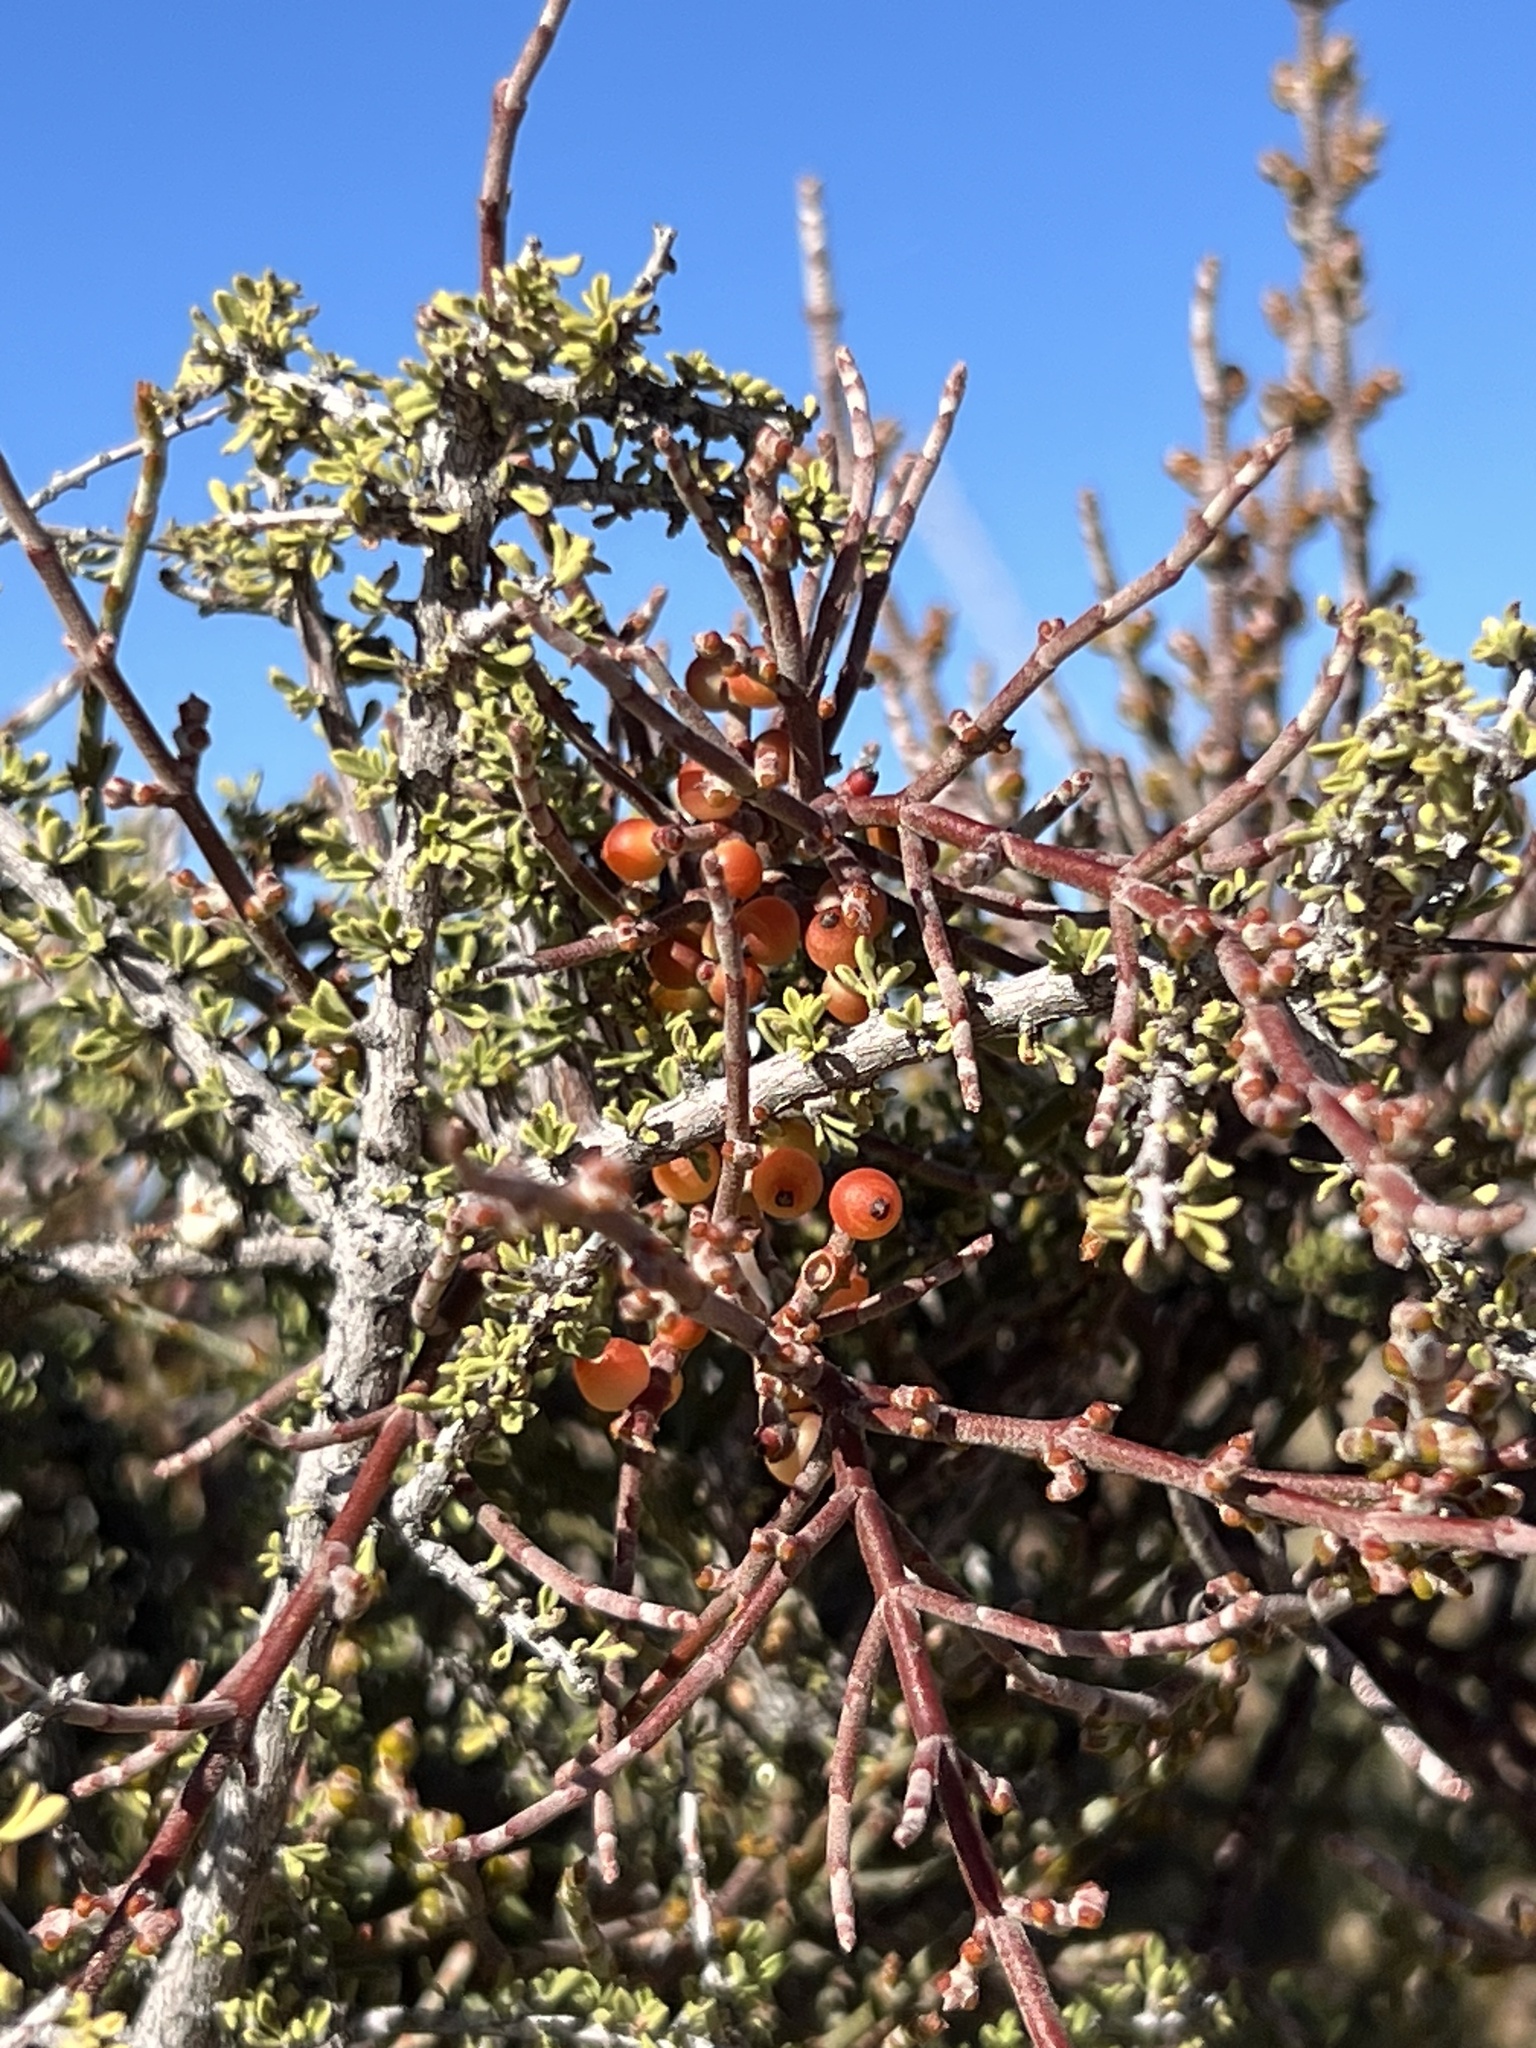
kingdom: Plantae
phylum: Tracheophyta
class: Magnoliopsida
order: Santalales
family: Viscaceae
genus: Phoradendron
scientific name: Phoradendron californicum
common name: Acacia mistletoe
